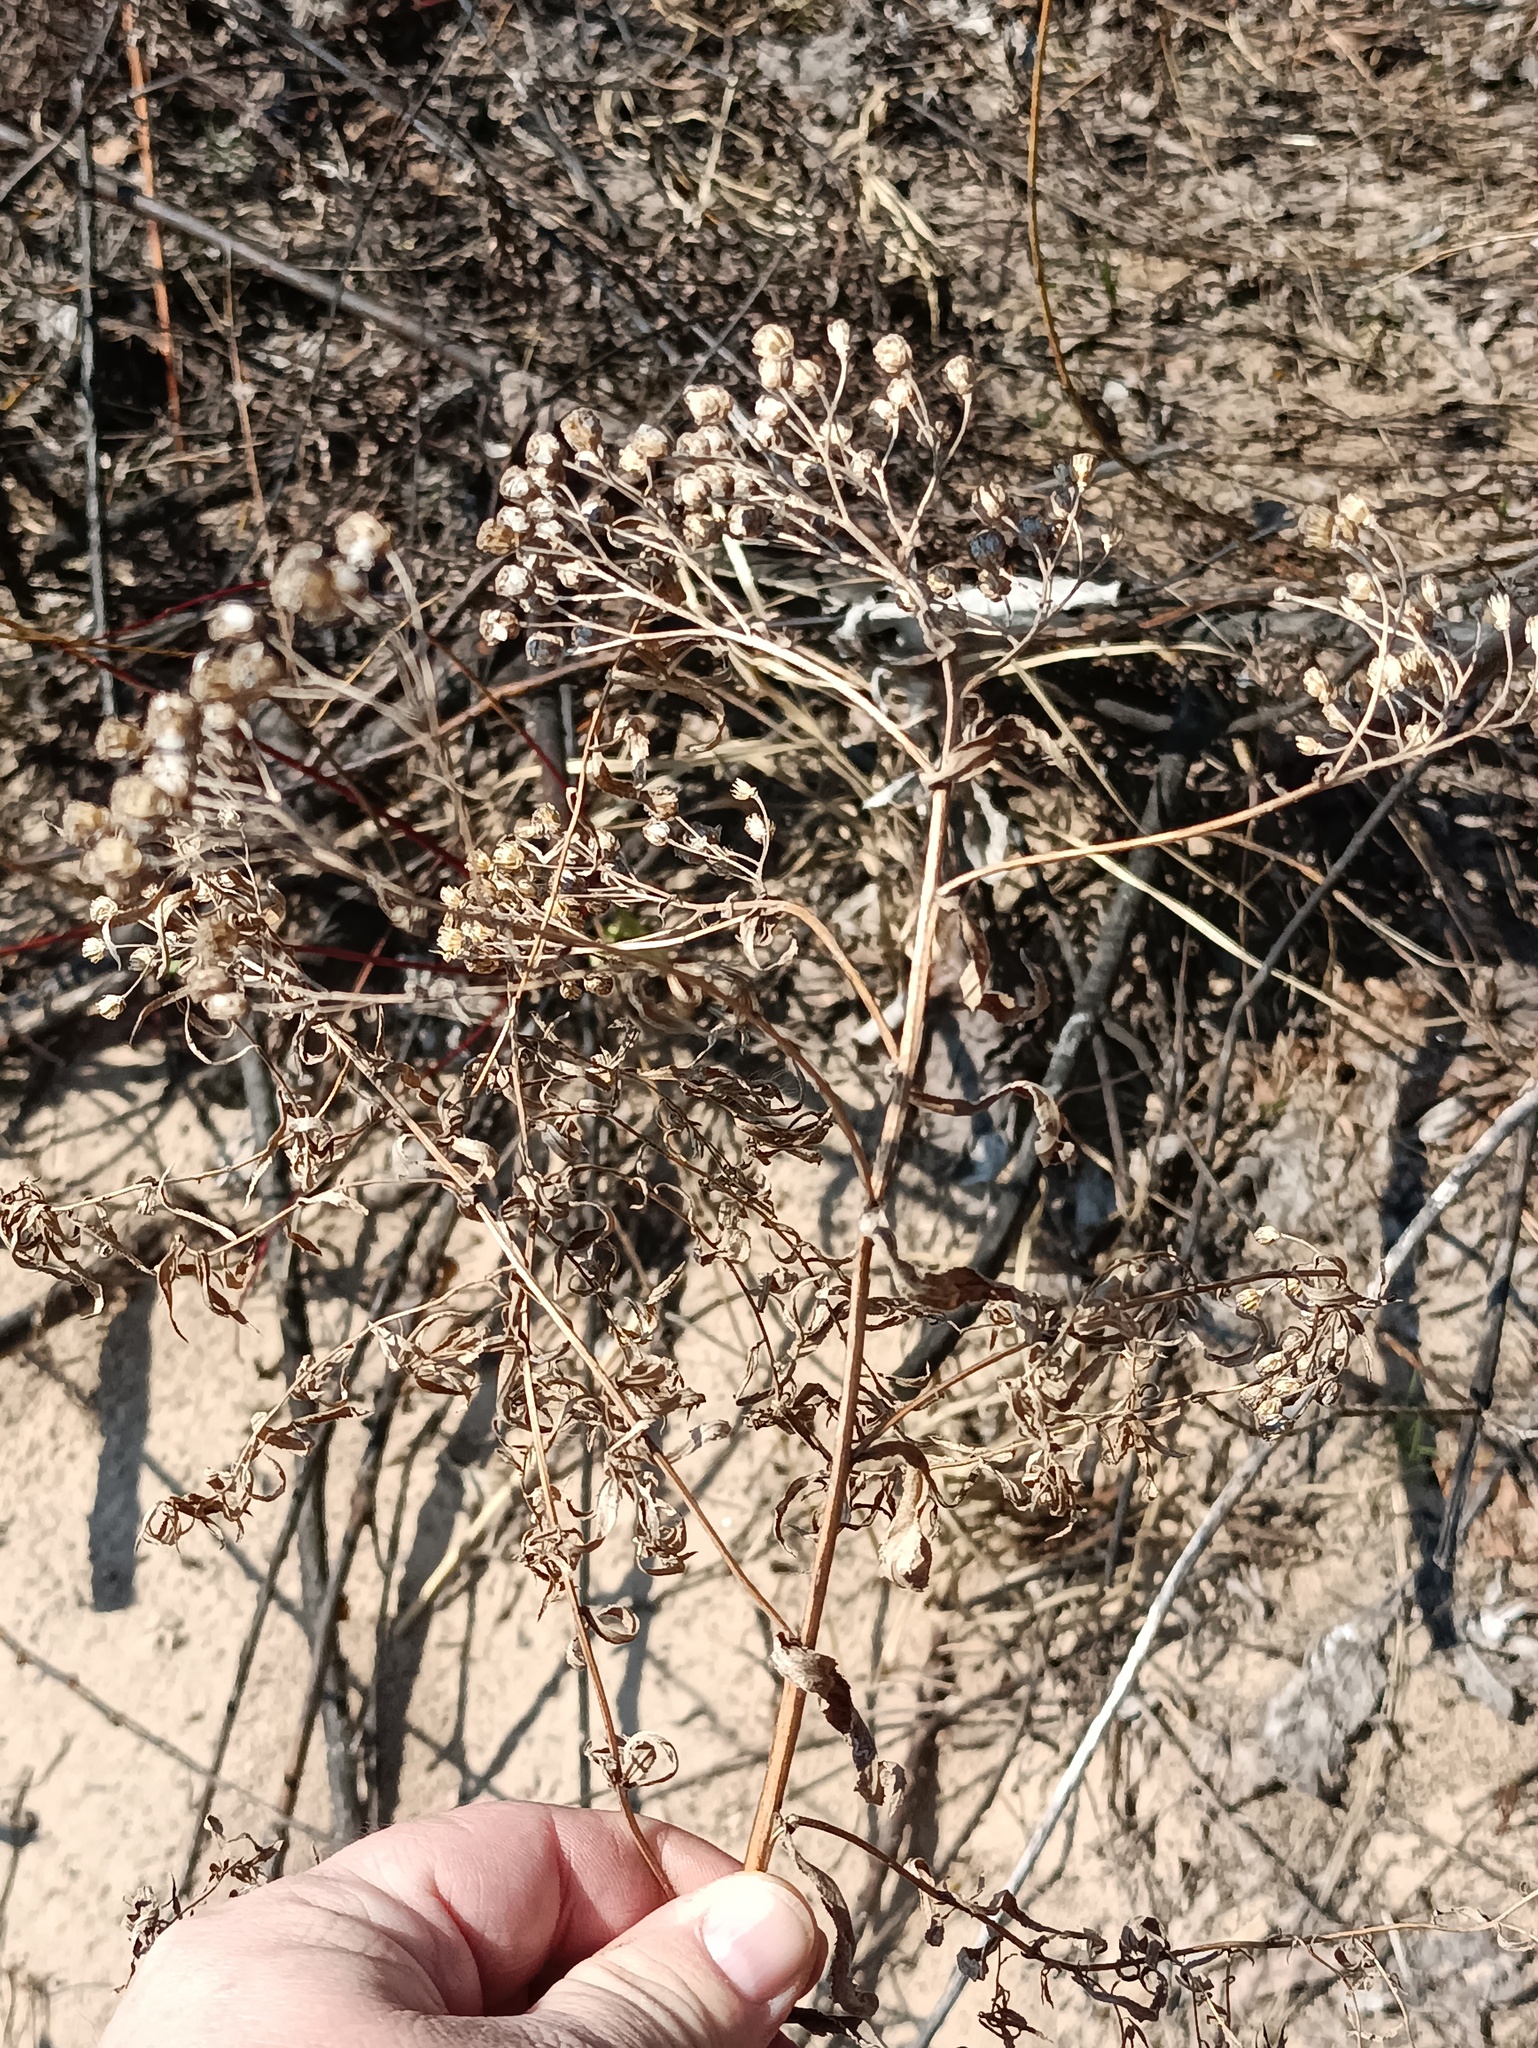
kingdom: Plantae
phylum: Tracheophyta
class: Magnoliopsida
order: Asterales
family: Asteraceae
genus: Tanacetum
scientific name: Tanacetum vulgare
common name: Common tansy
